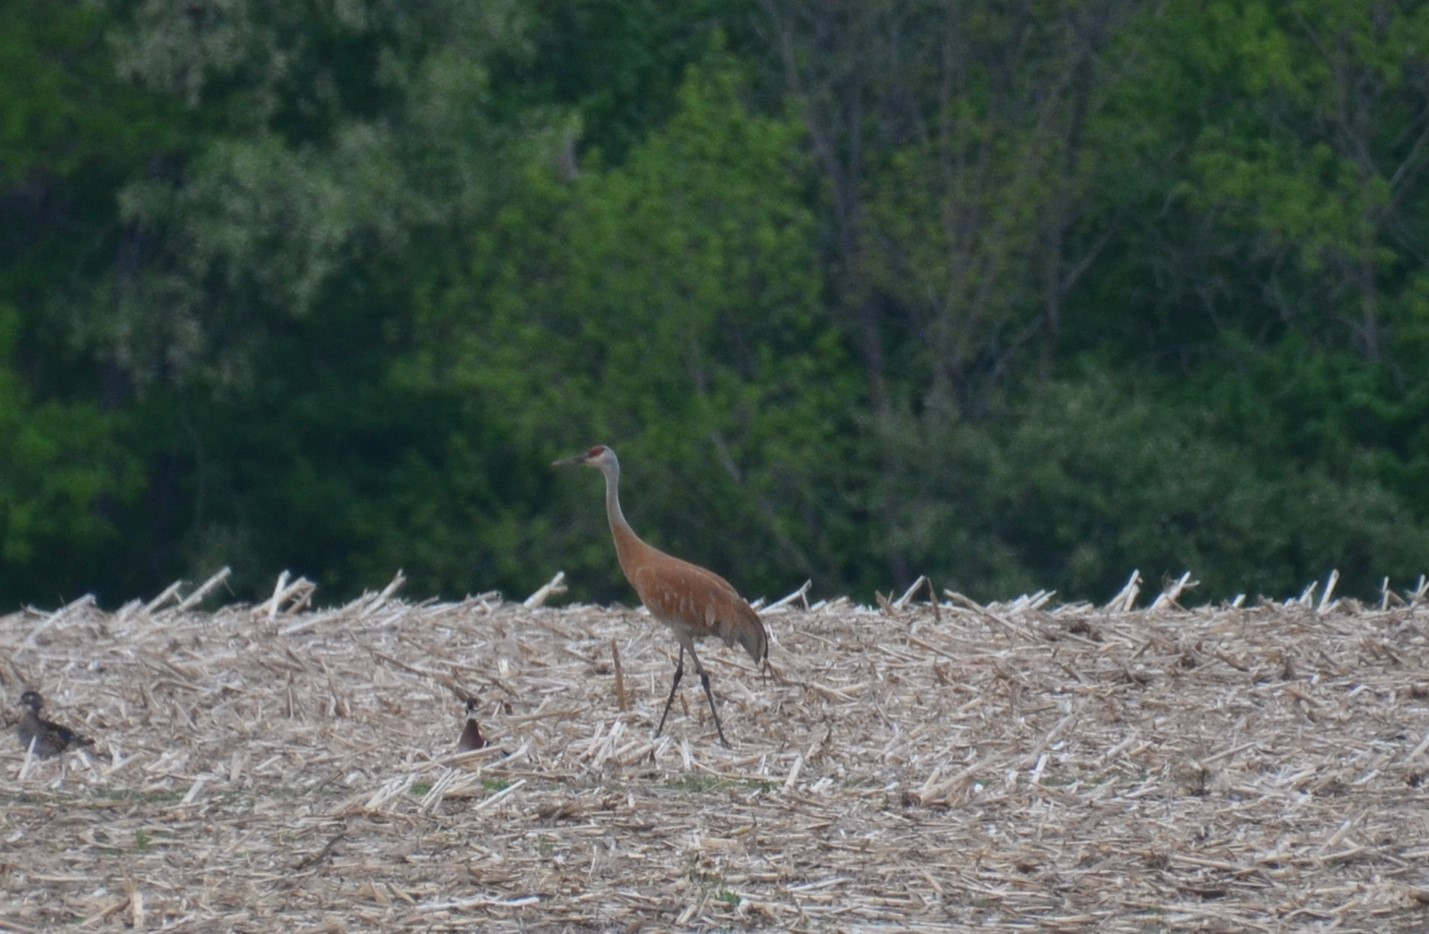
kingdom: Animalia
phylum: Chordata
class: Aves
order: Gruiformes
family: Gruidae
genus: Grus
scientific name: Grus canadensis
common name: Sandhill crane
